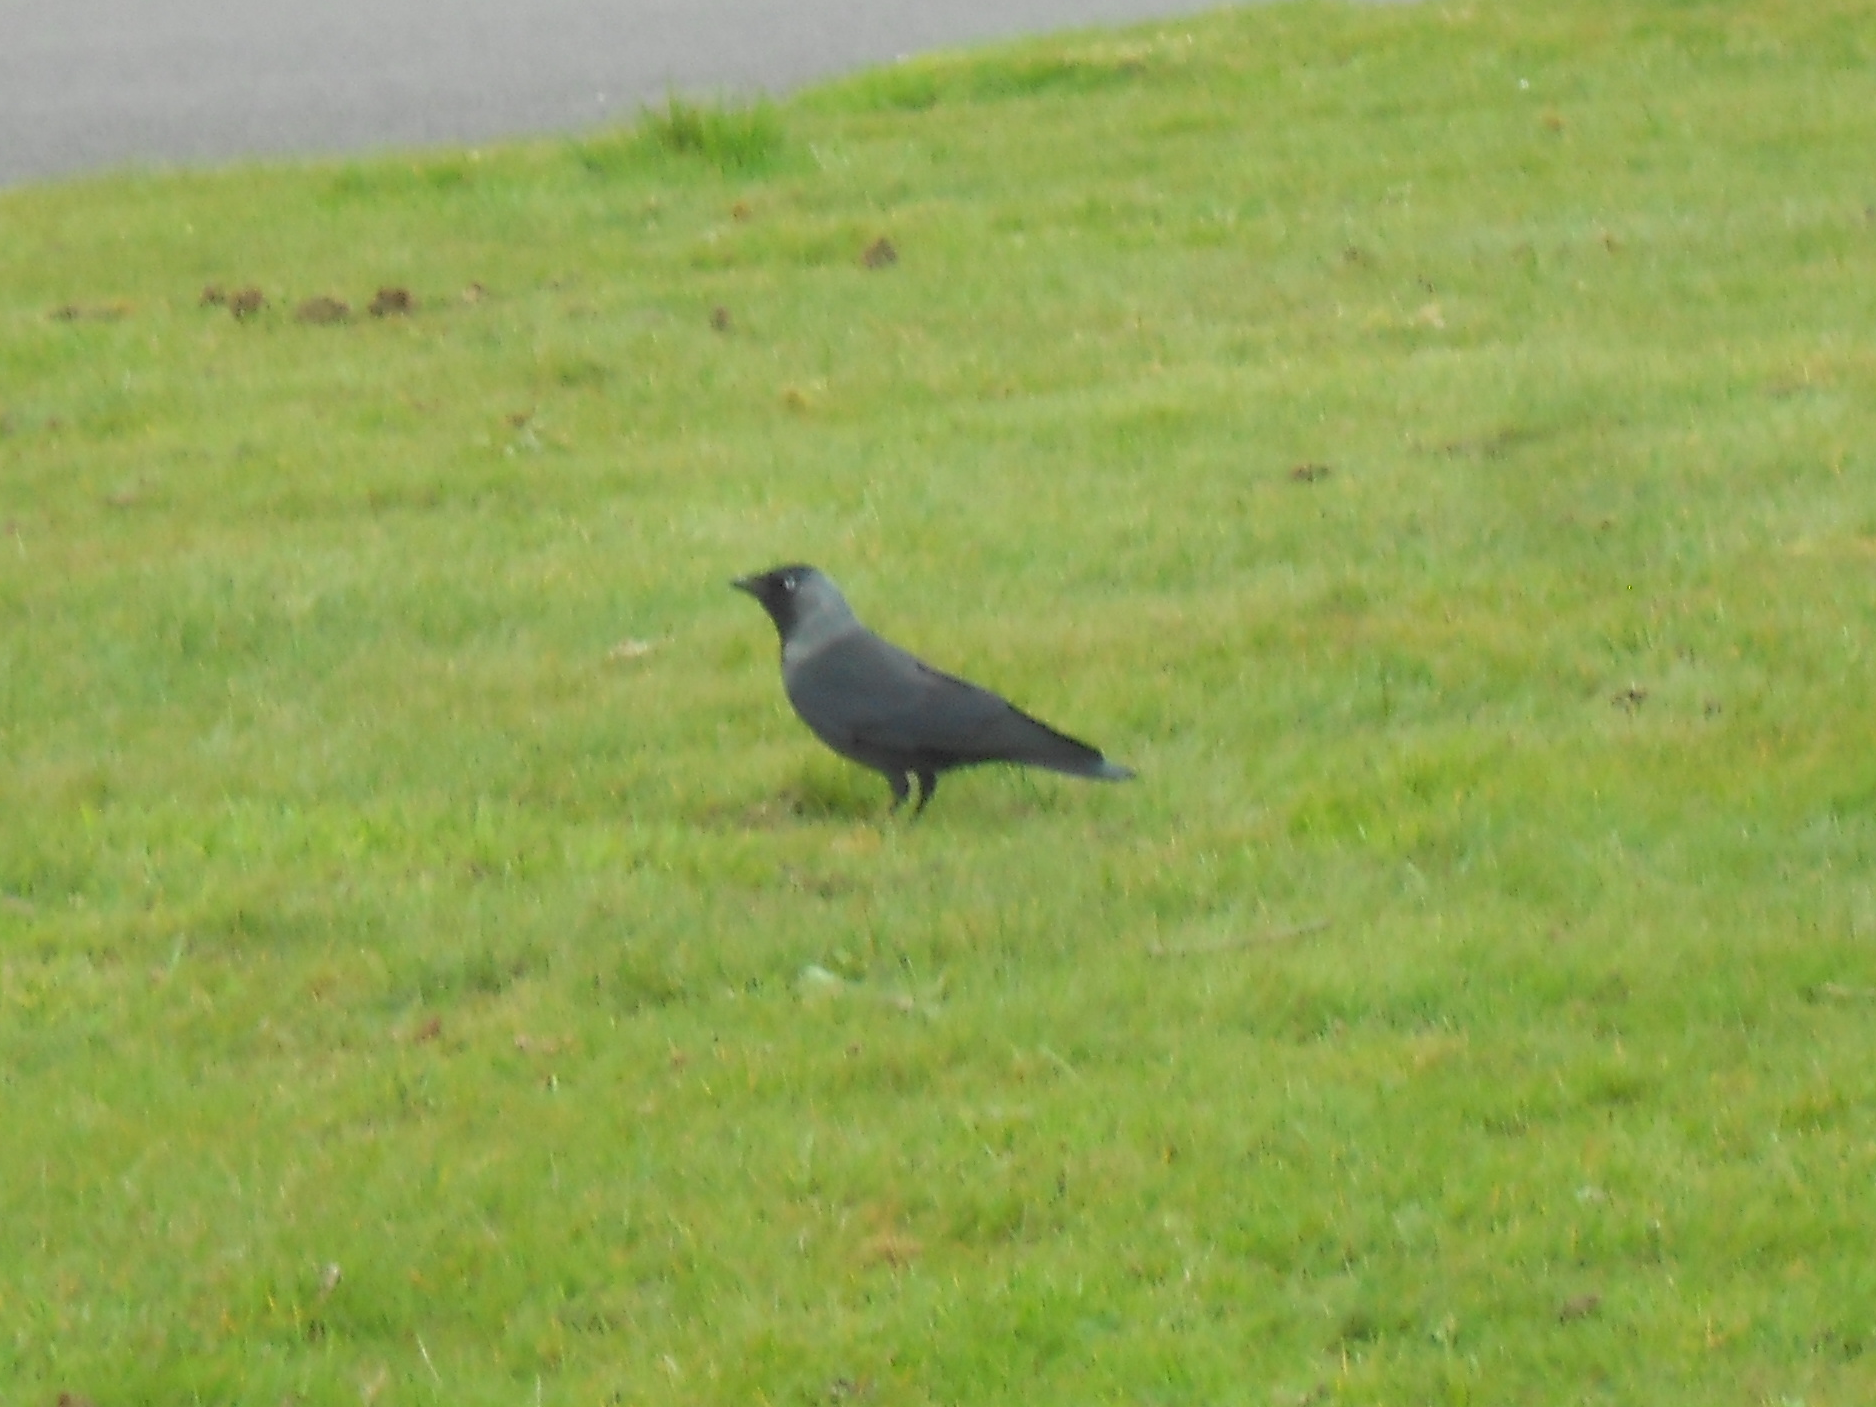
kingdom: Animalia
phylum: Chordata
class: Aves
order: Passeriformes
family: Corvidae
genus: Coloeus
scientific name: Coloeus monedula
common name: Western jackdaw
